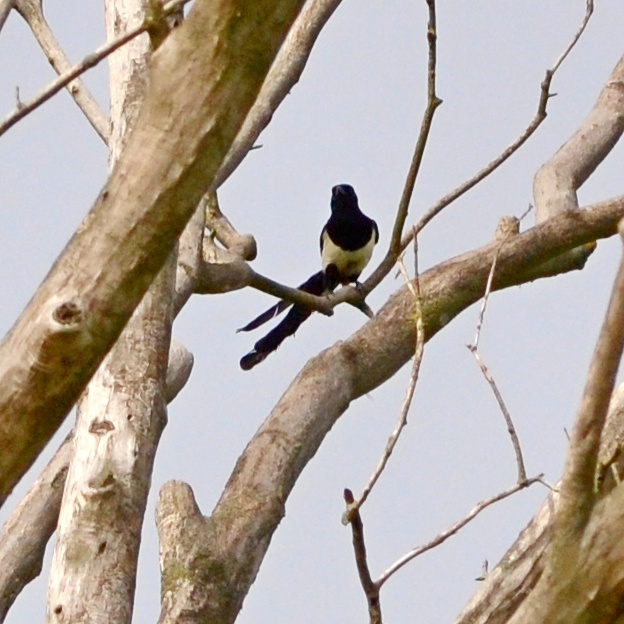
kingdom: Animalia
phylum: Chordata
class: Aves
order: Passeriformes
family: Corvidae
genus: Pica
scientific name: Pica pica
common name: Eurasian magpie
